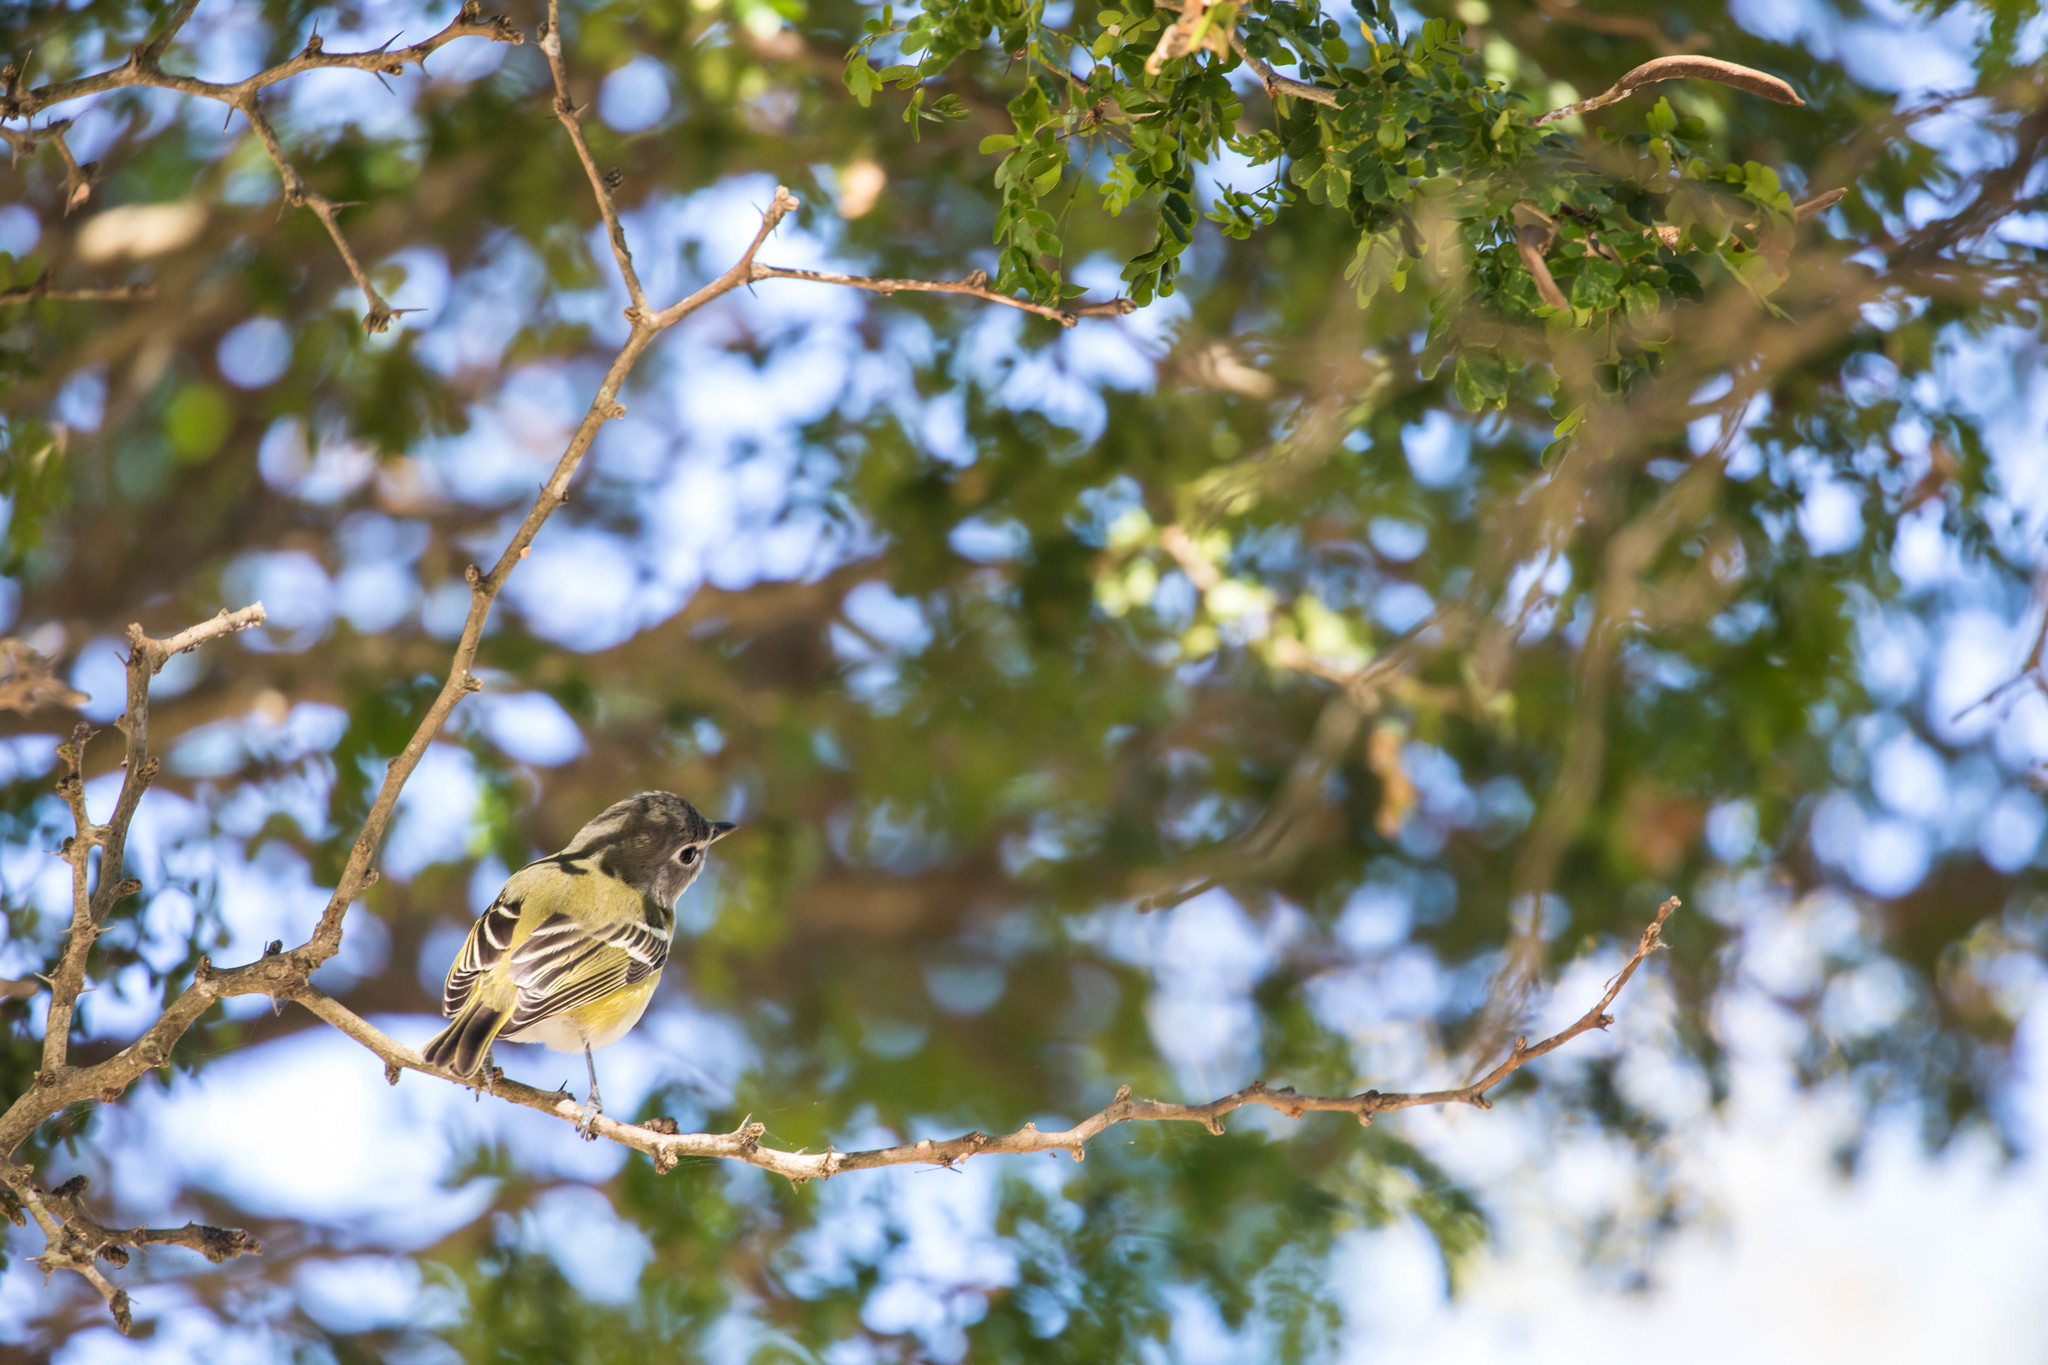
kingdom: Animalia
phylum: Chordata
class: Aves
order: Passeriformes
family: Vireonidae
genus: Vireo
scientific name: Vireo solitarius
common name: Blue-headed vireo
